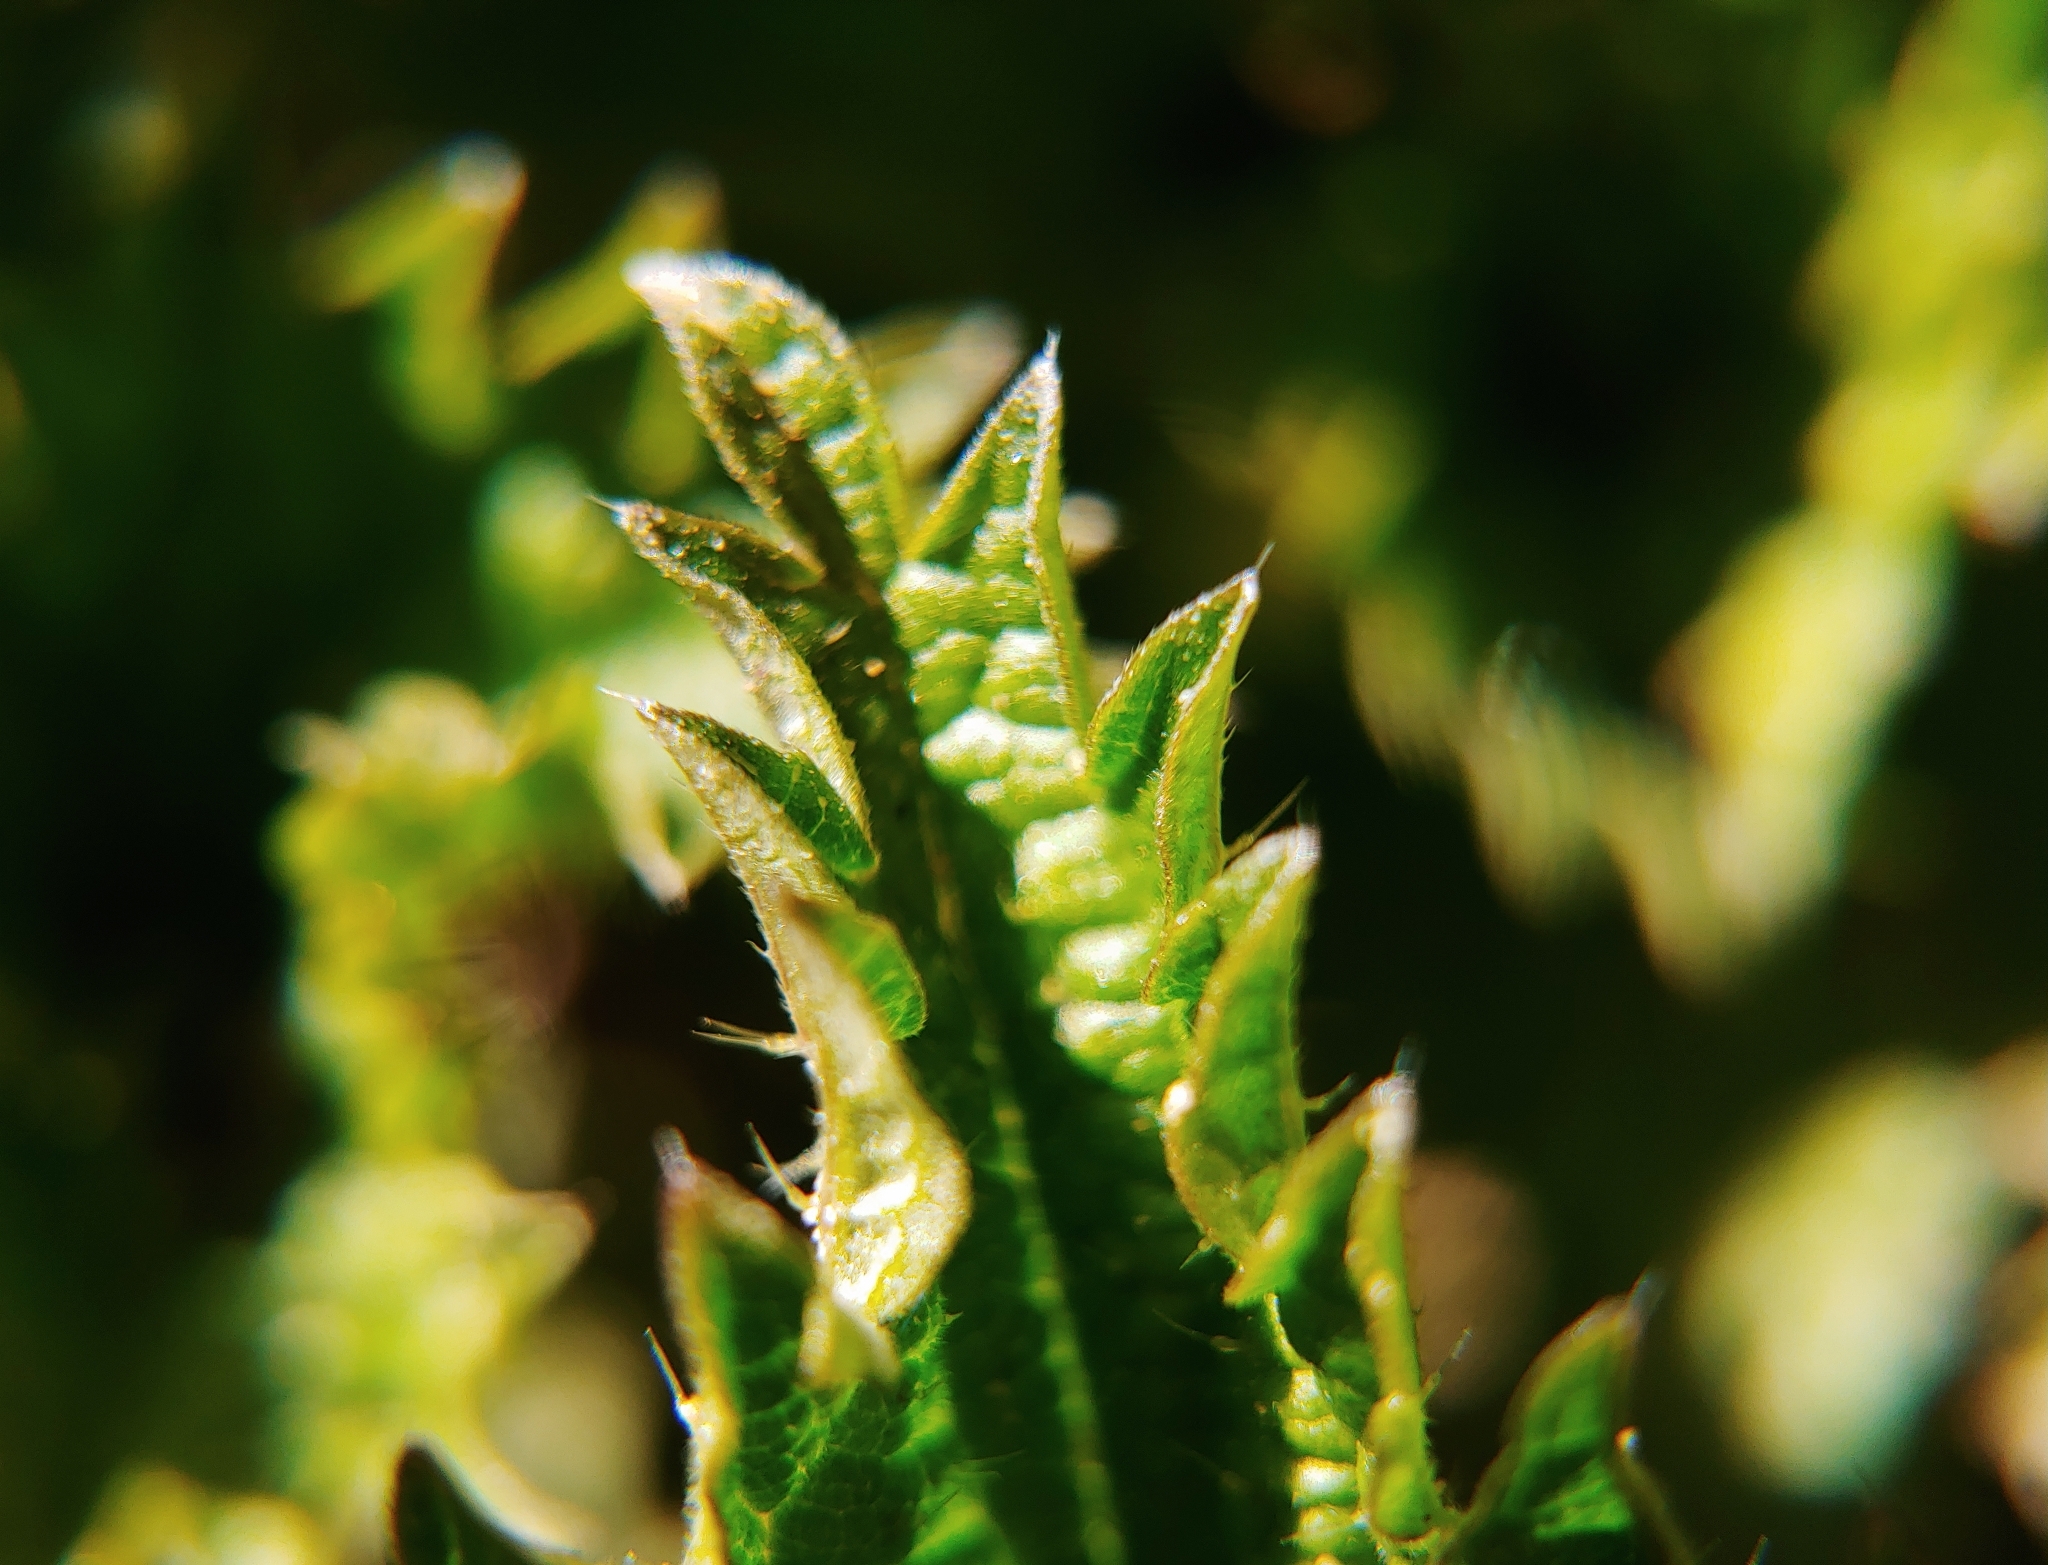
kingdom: Plantae
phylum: Tracheophyta
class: Magnoliopsida
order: Rosales
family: Urticaceae
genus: Urtica
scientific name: Urtica dioica
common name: Common nettle
